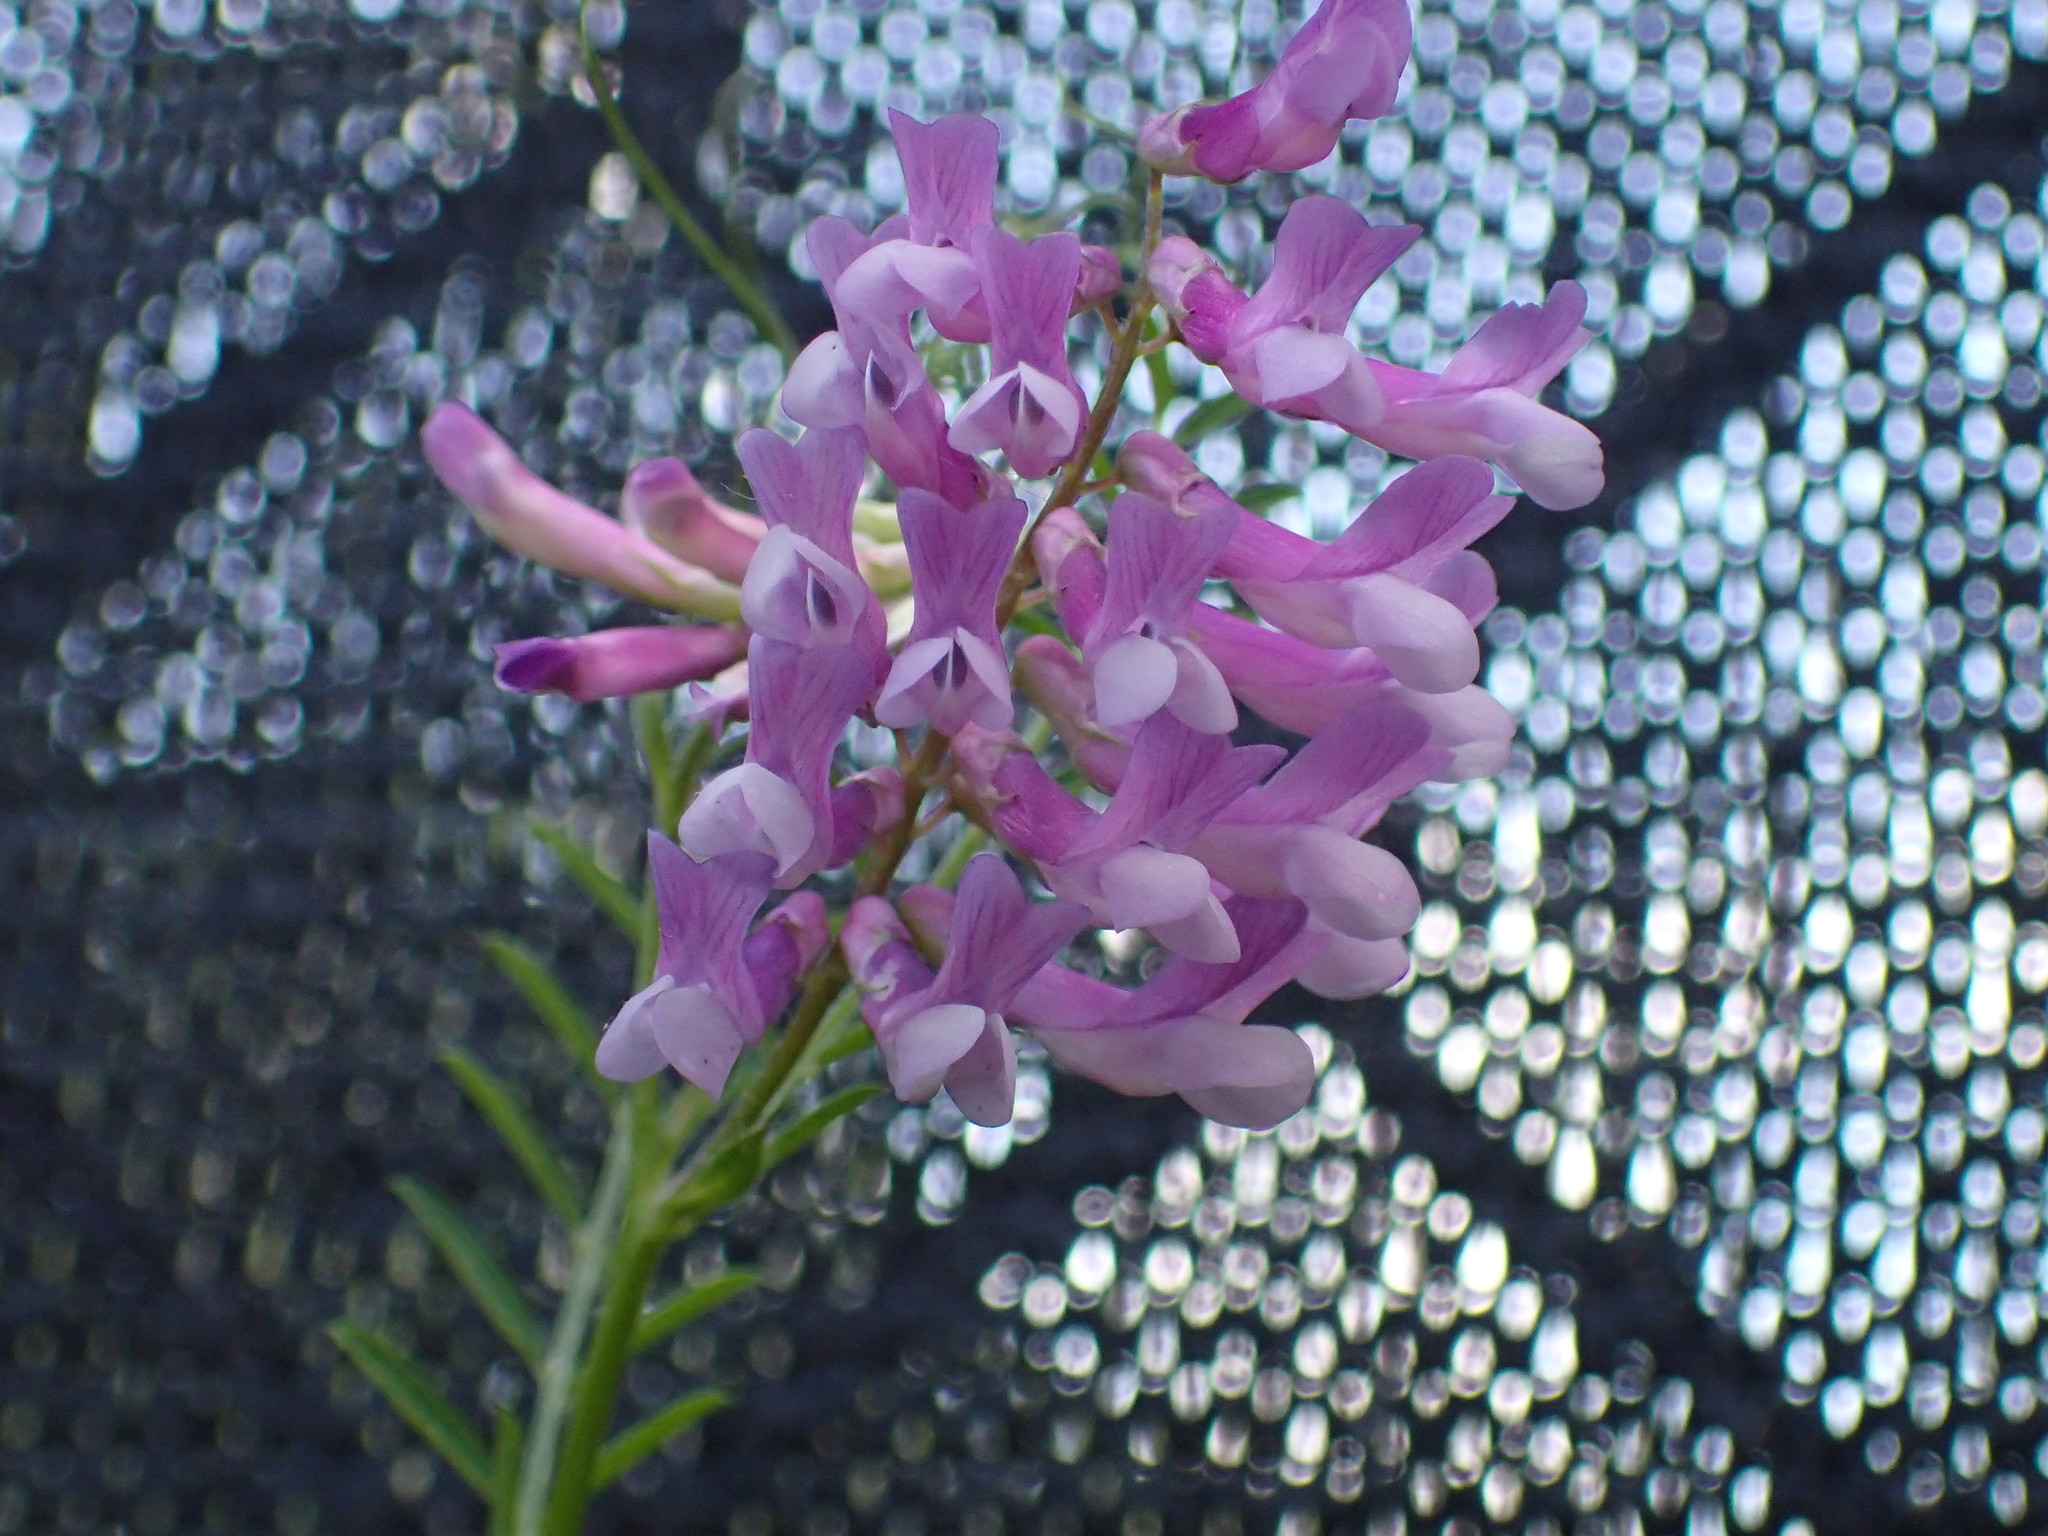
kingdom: Plantae
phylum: Tracheophyta
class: Magnoliopsida
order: Fabales
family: Fabaceae
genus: Vicia
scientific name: Vicia villosa
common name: Fodder vetch
